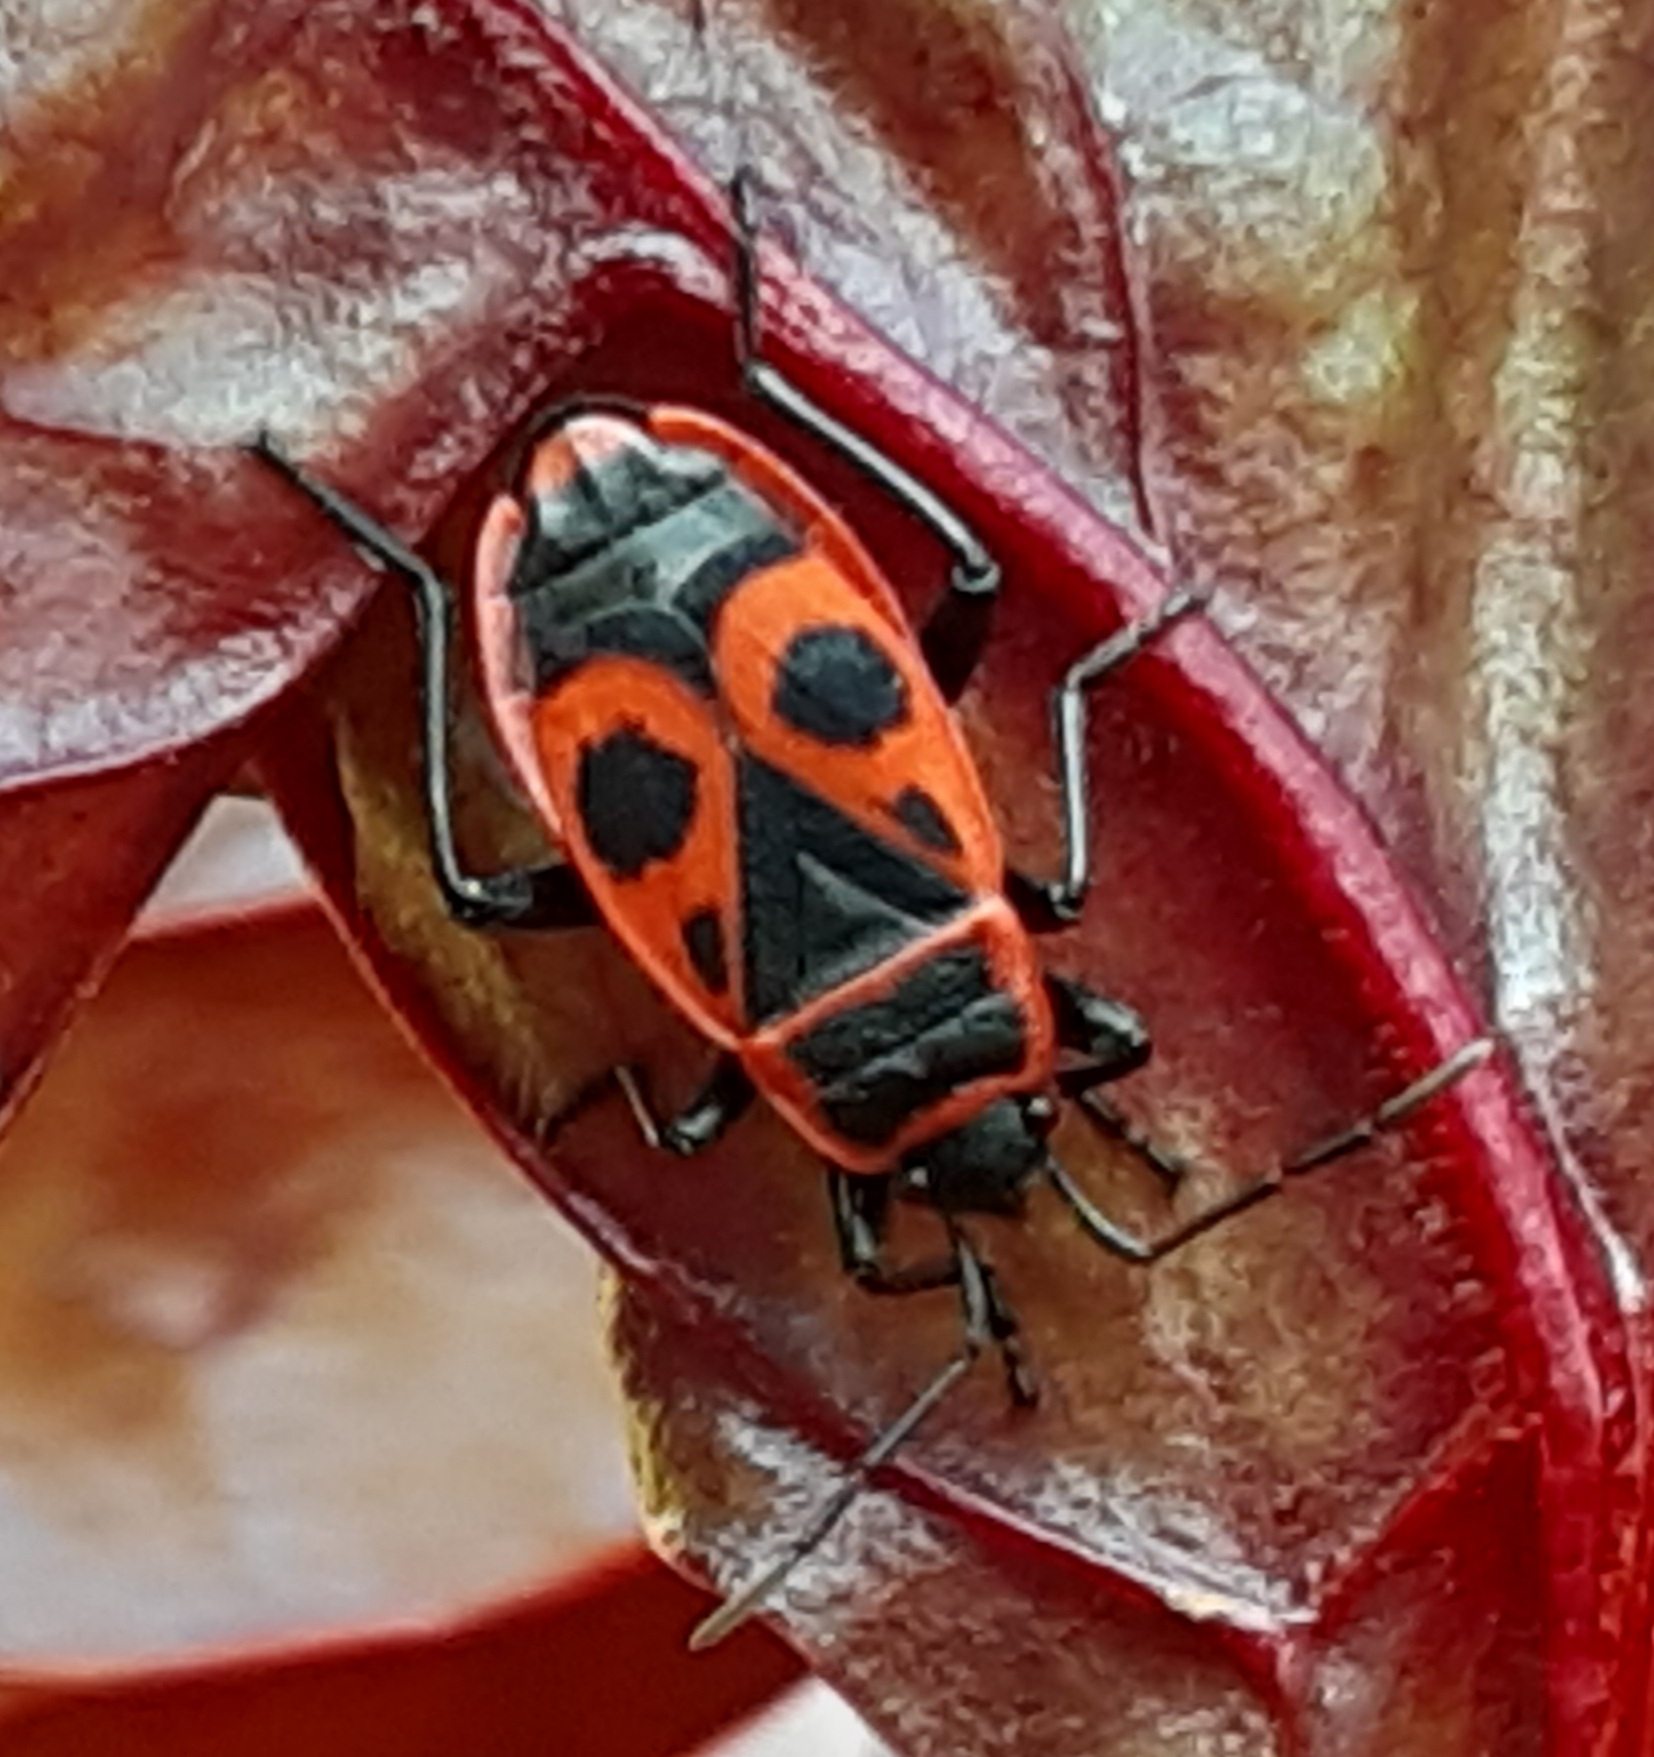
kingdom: Animalia
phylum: Arthropoda
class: Insecta
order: Hemiptera
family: Pyrrhocoridae
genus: Pyrrhocoris
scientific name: Pyrrhocoris apterus
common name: Firebug
